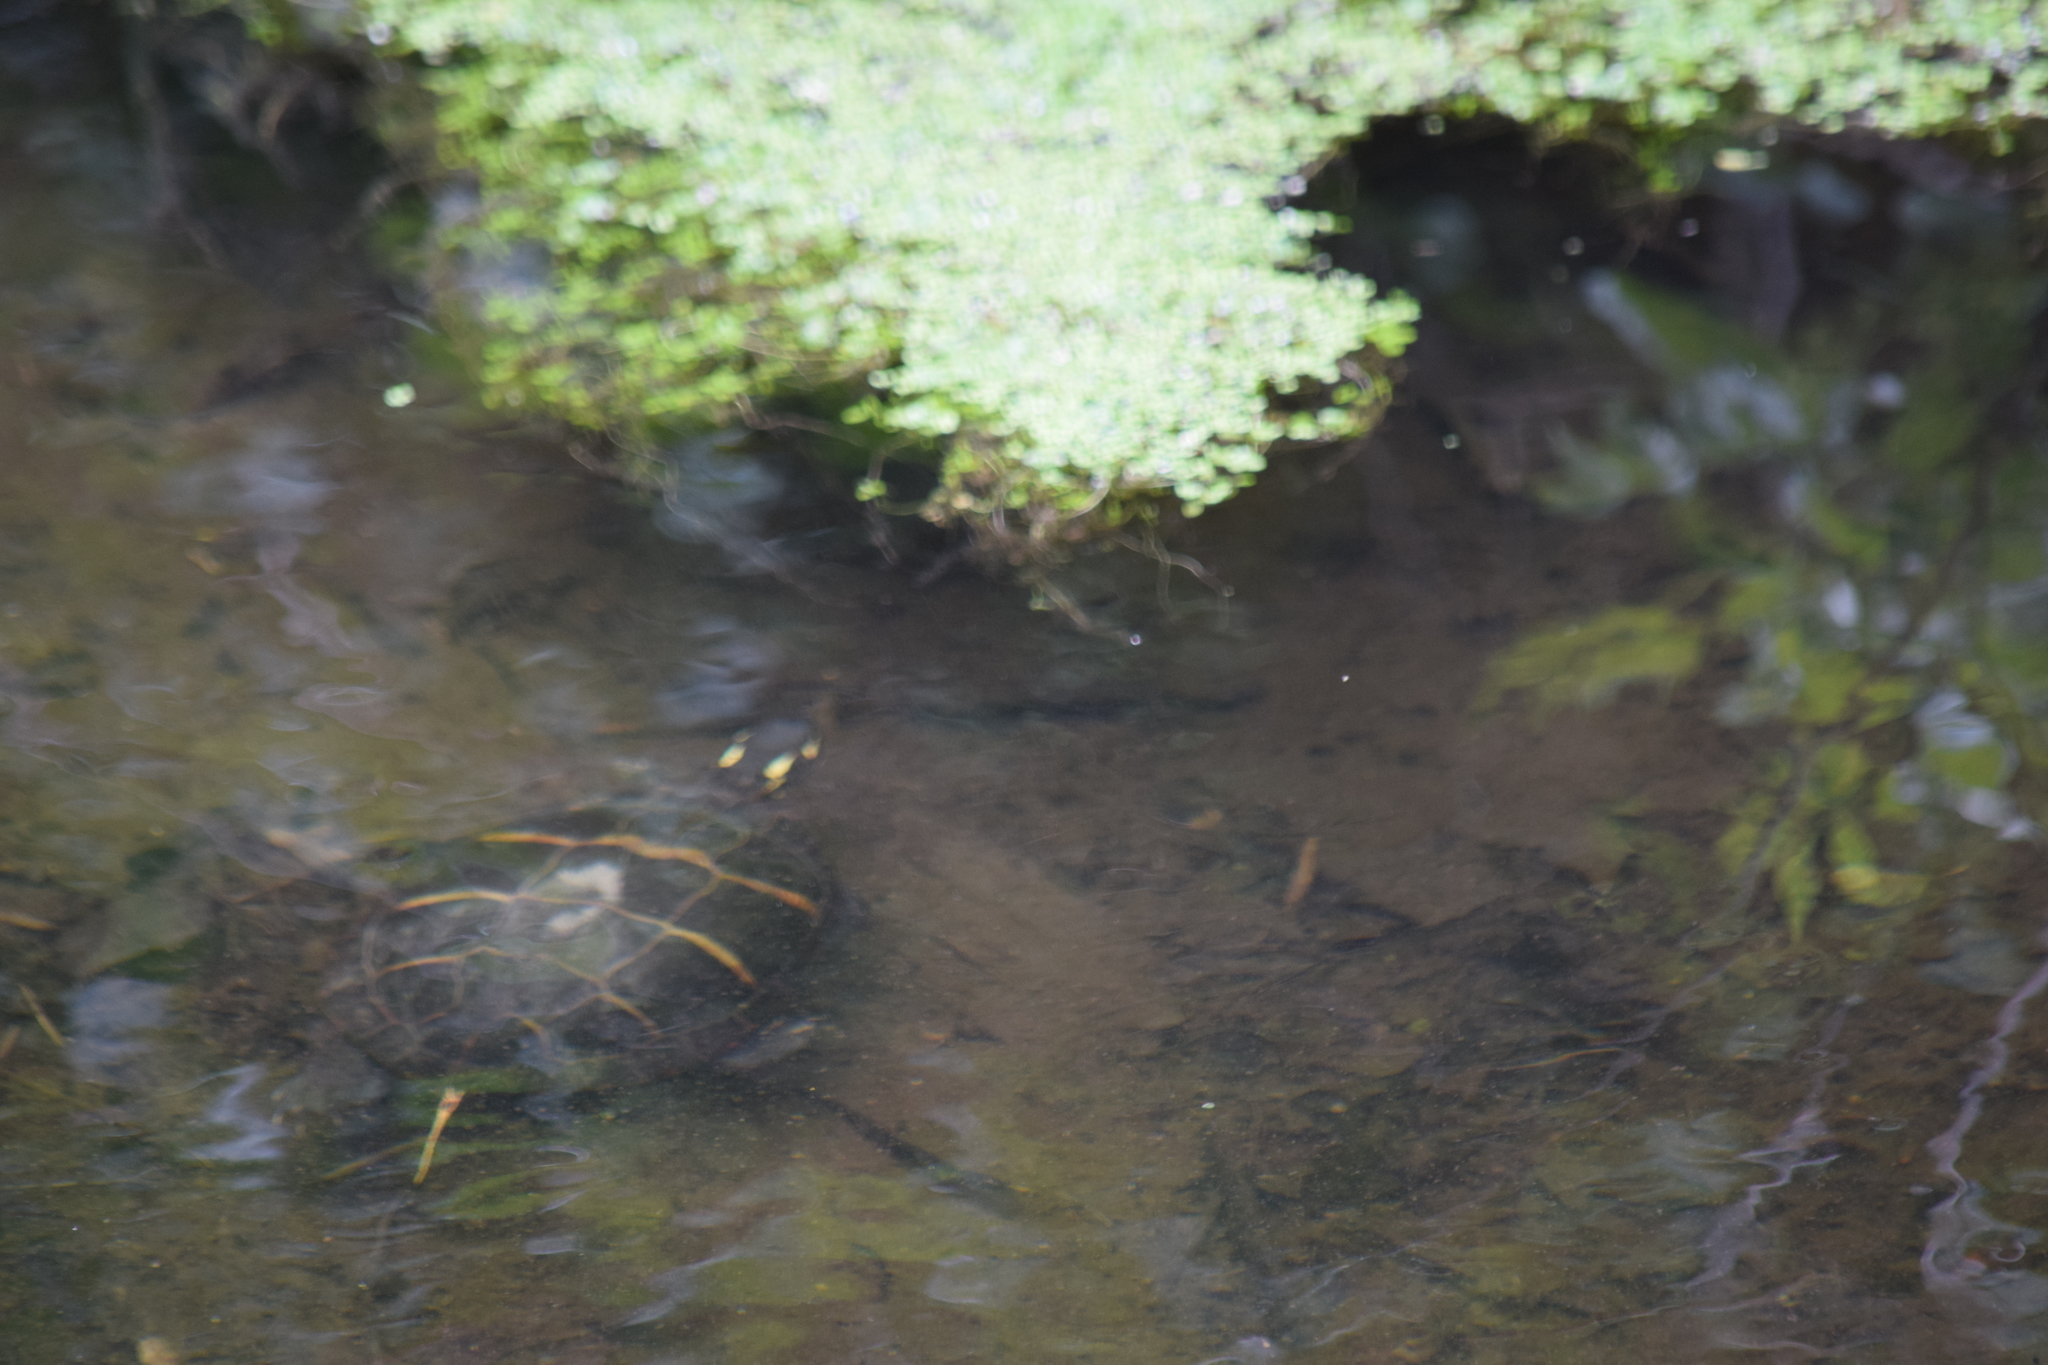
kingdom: Animalia
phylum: Chordata
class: Testudines
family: Emydidae
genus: Chrysemys
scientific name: Chrysemys picta
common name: Painted turtle
